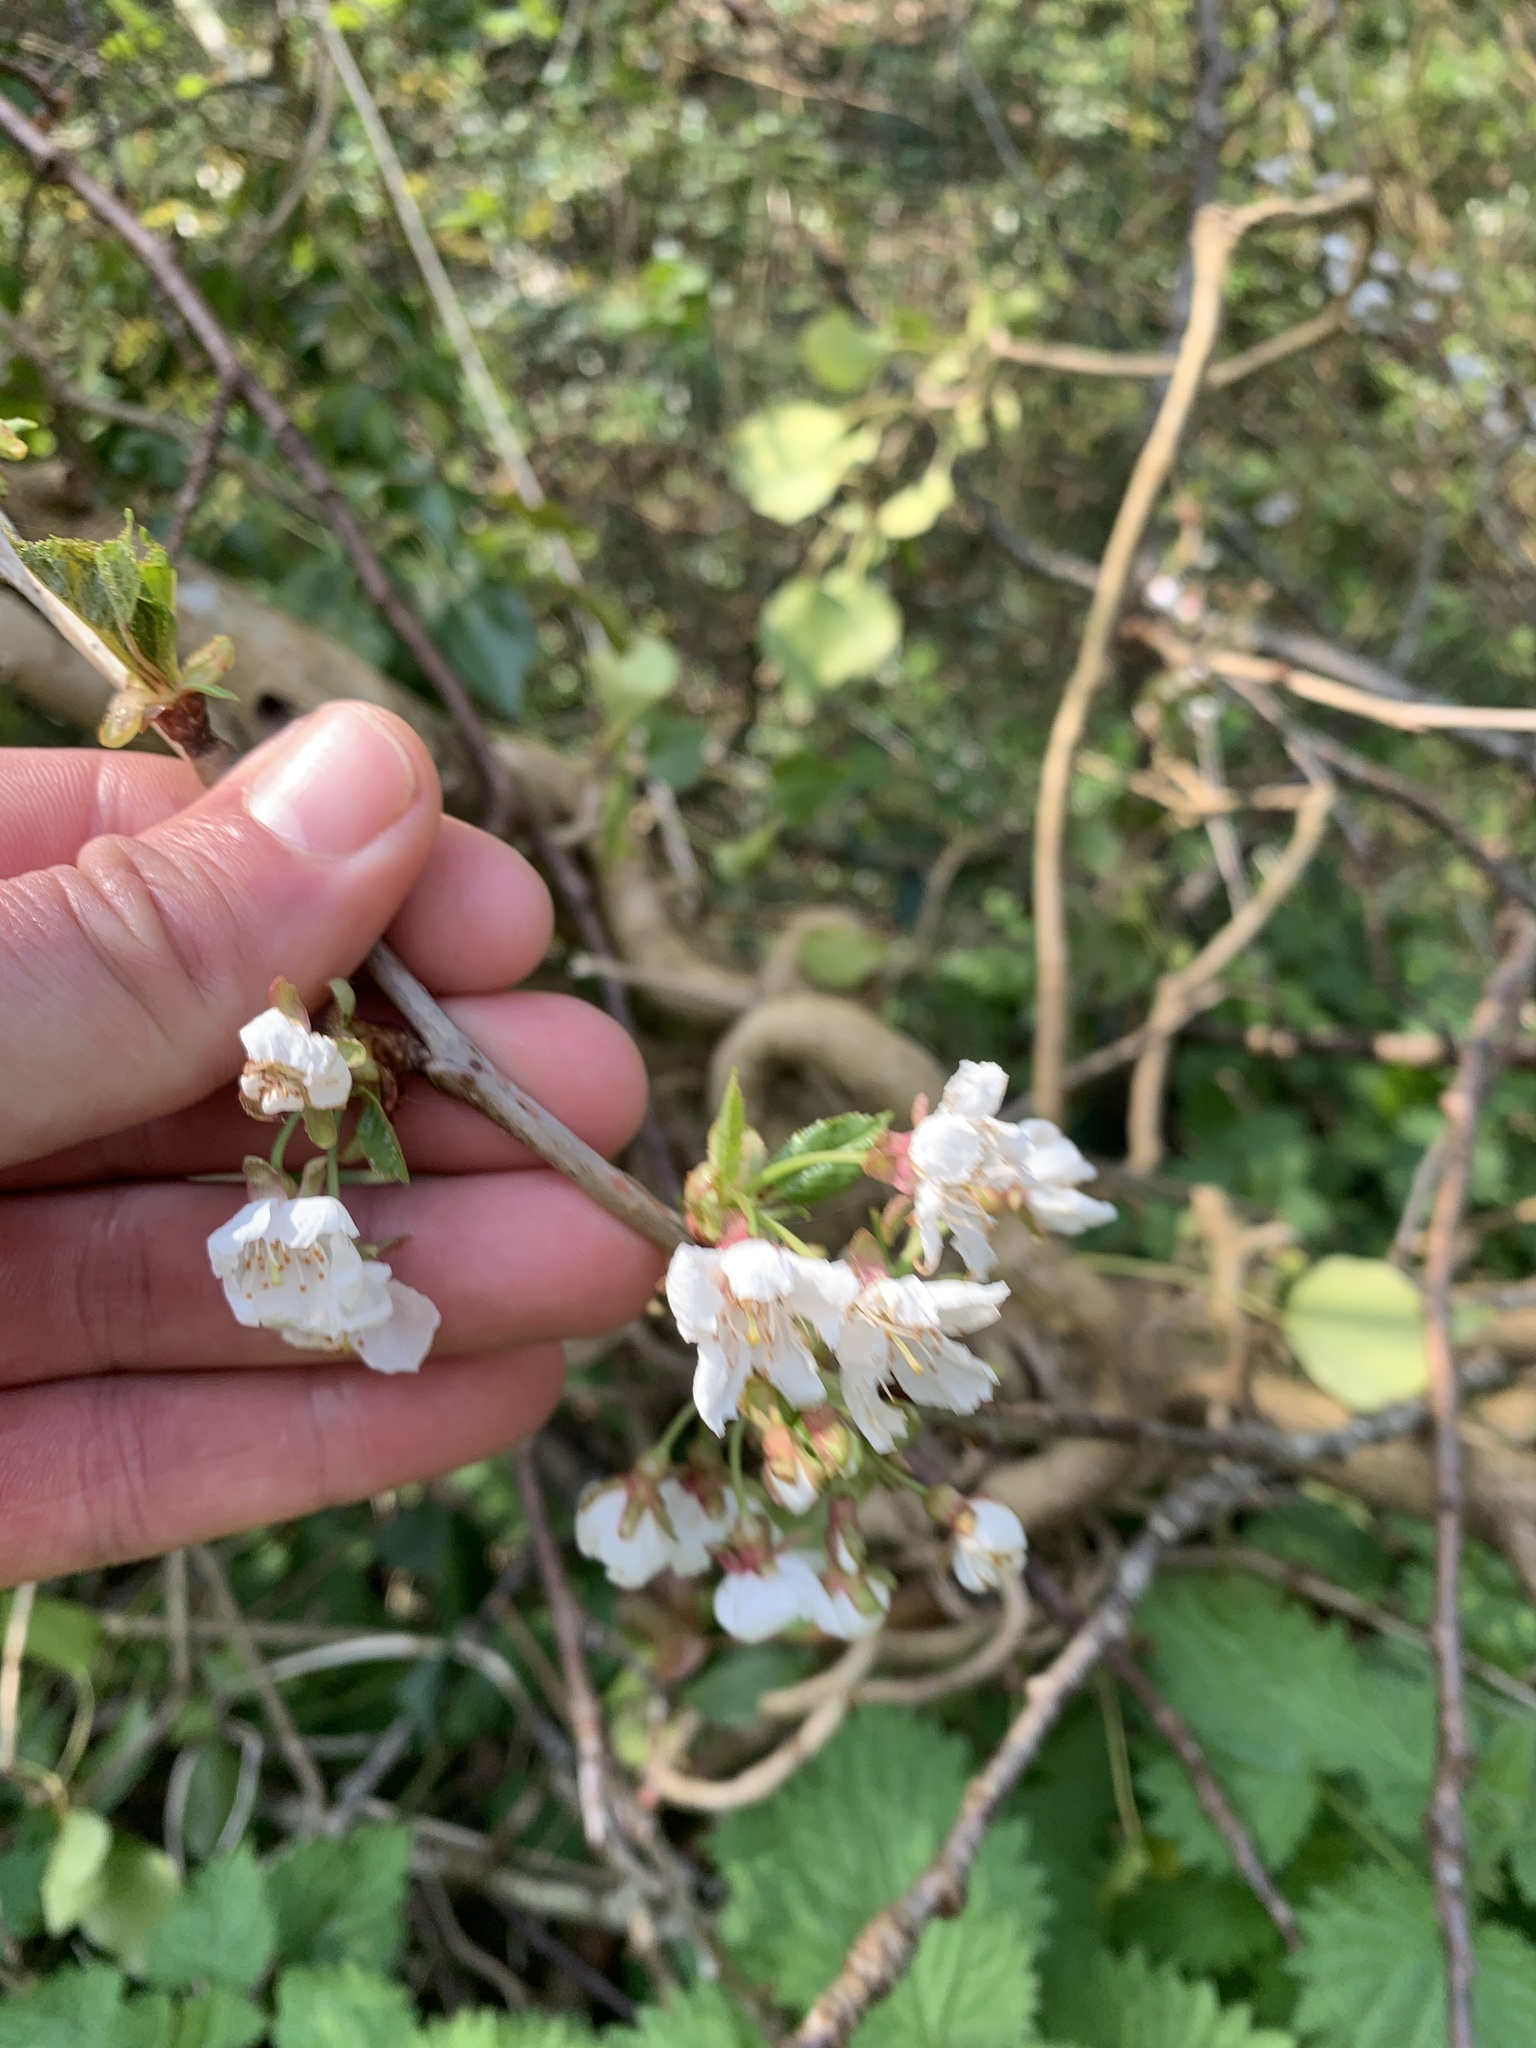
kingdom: Plantae
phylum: Tracheophyta
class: Magnoliopsida
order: Rosales
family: Rosaceae
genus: Prunus
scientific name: Prunus avium
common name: Sweet cherry
